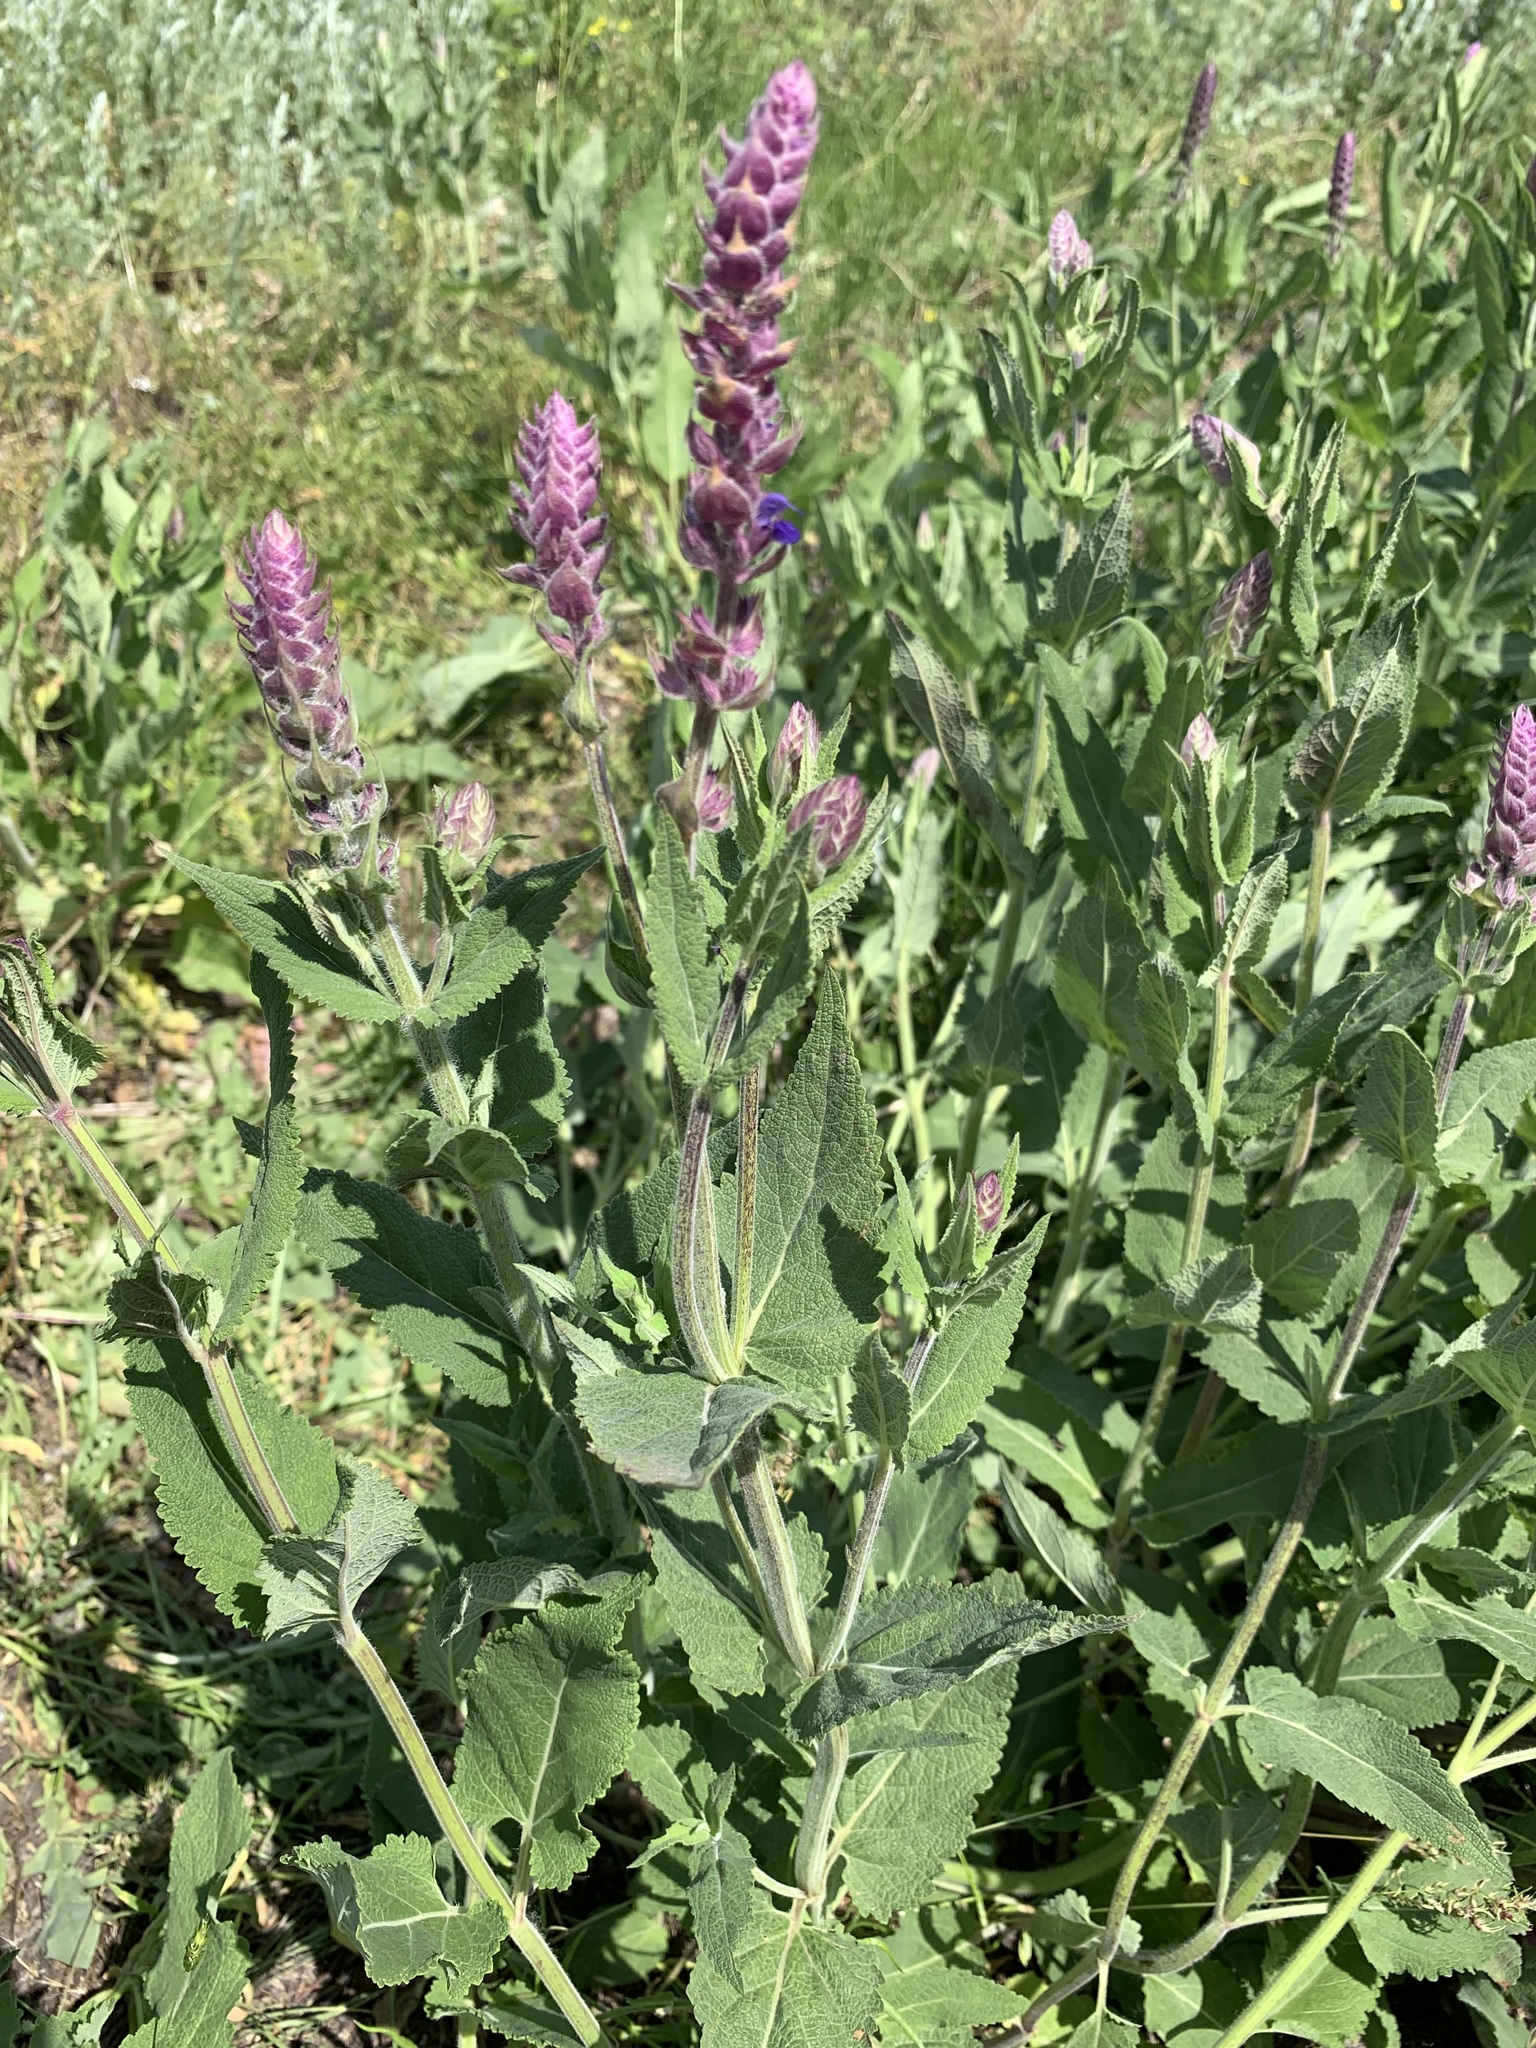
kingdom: Plantae
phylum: Tracheophyta
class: Magnoliopsida
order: Lamiales
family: Lamiaceae
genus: Salvia
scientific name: Salvia nemorosa
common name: Balkan clary
